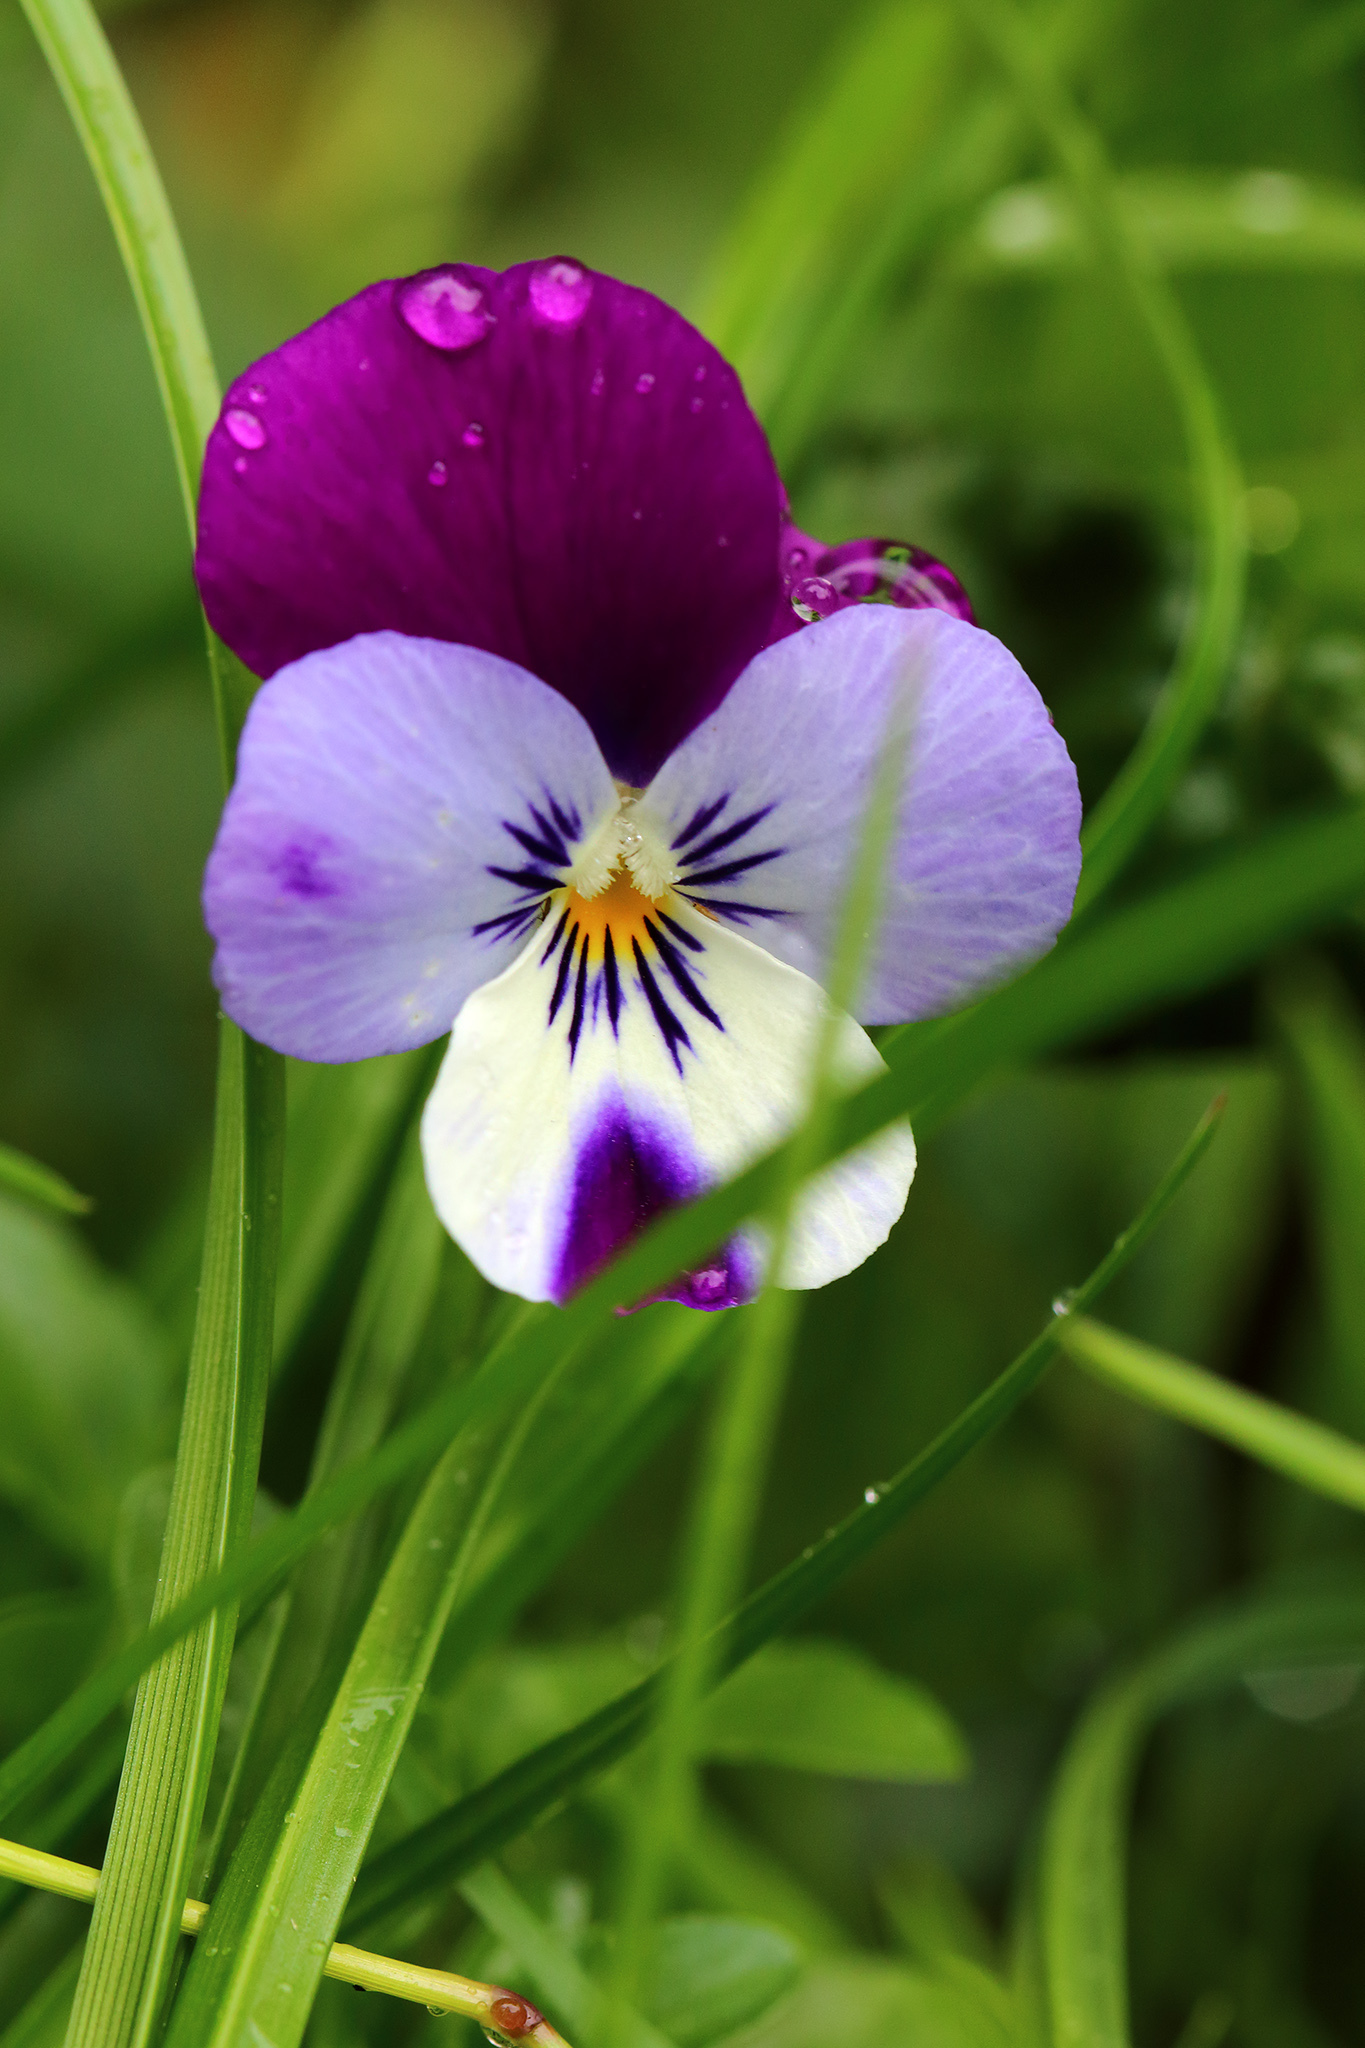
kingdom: Plantae
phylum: Tracheophyta
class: Magnoliopsida
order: Malpighiales
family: Violaceae
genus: Viola
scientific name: Viola williamsii
